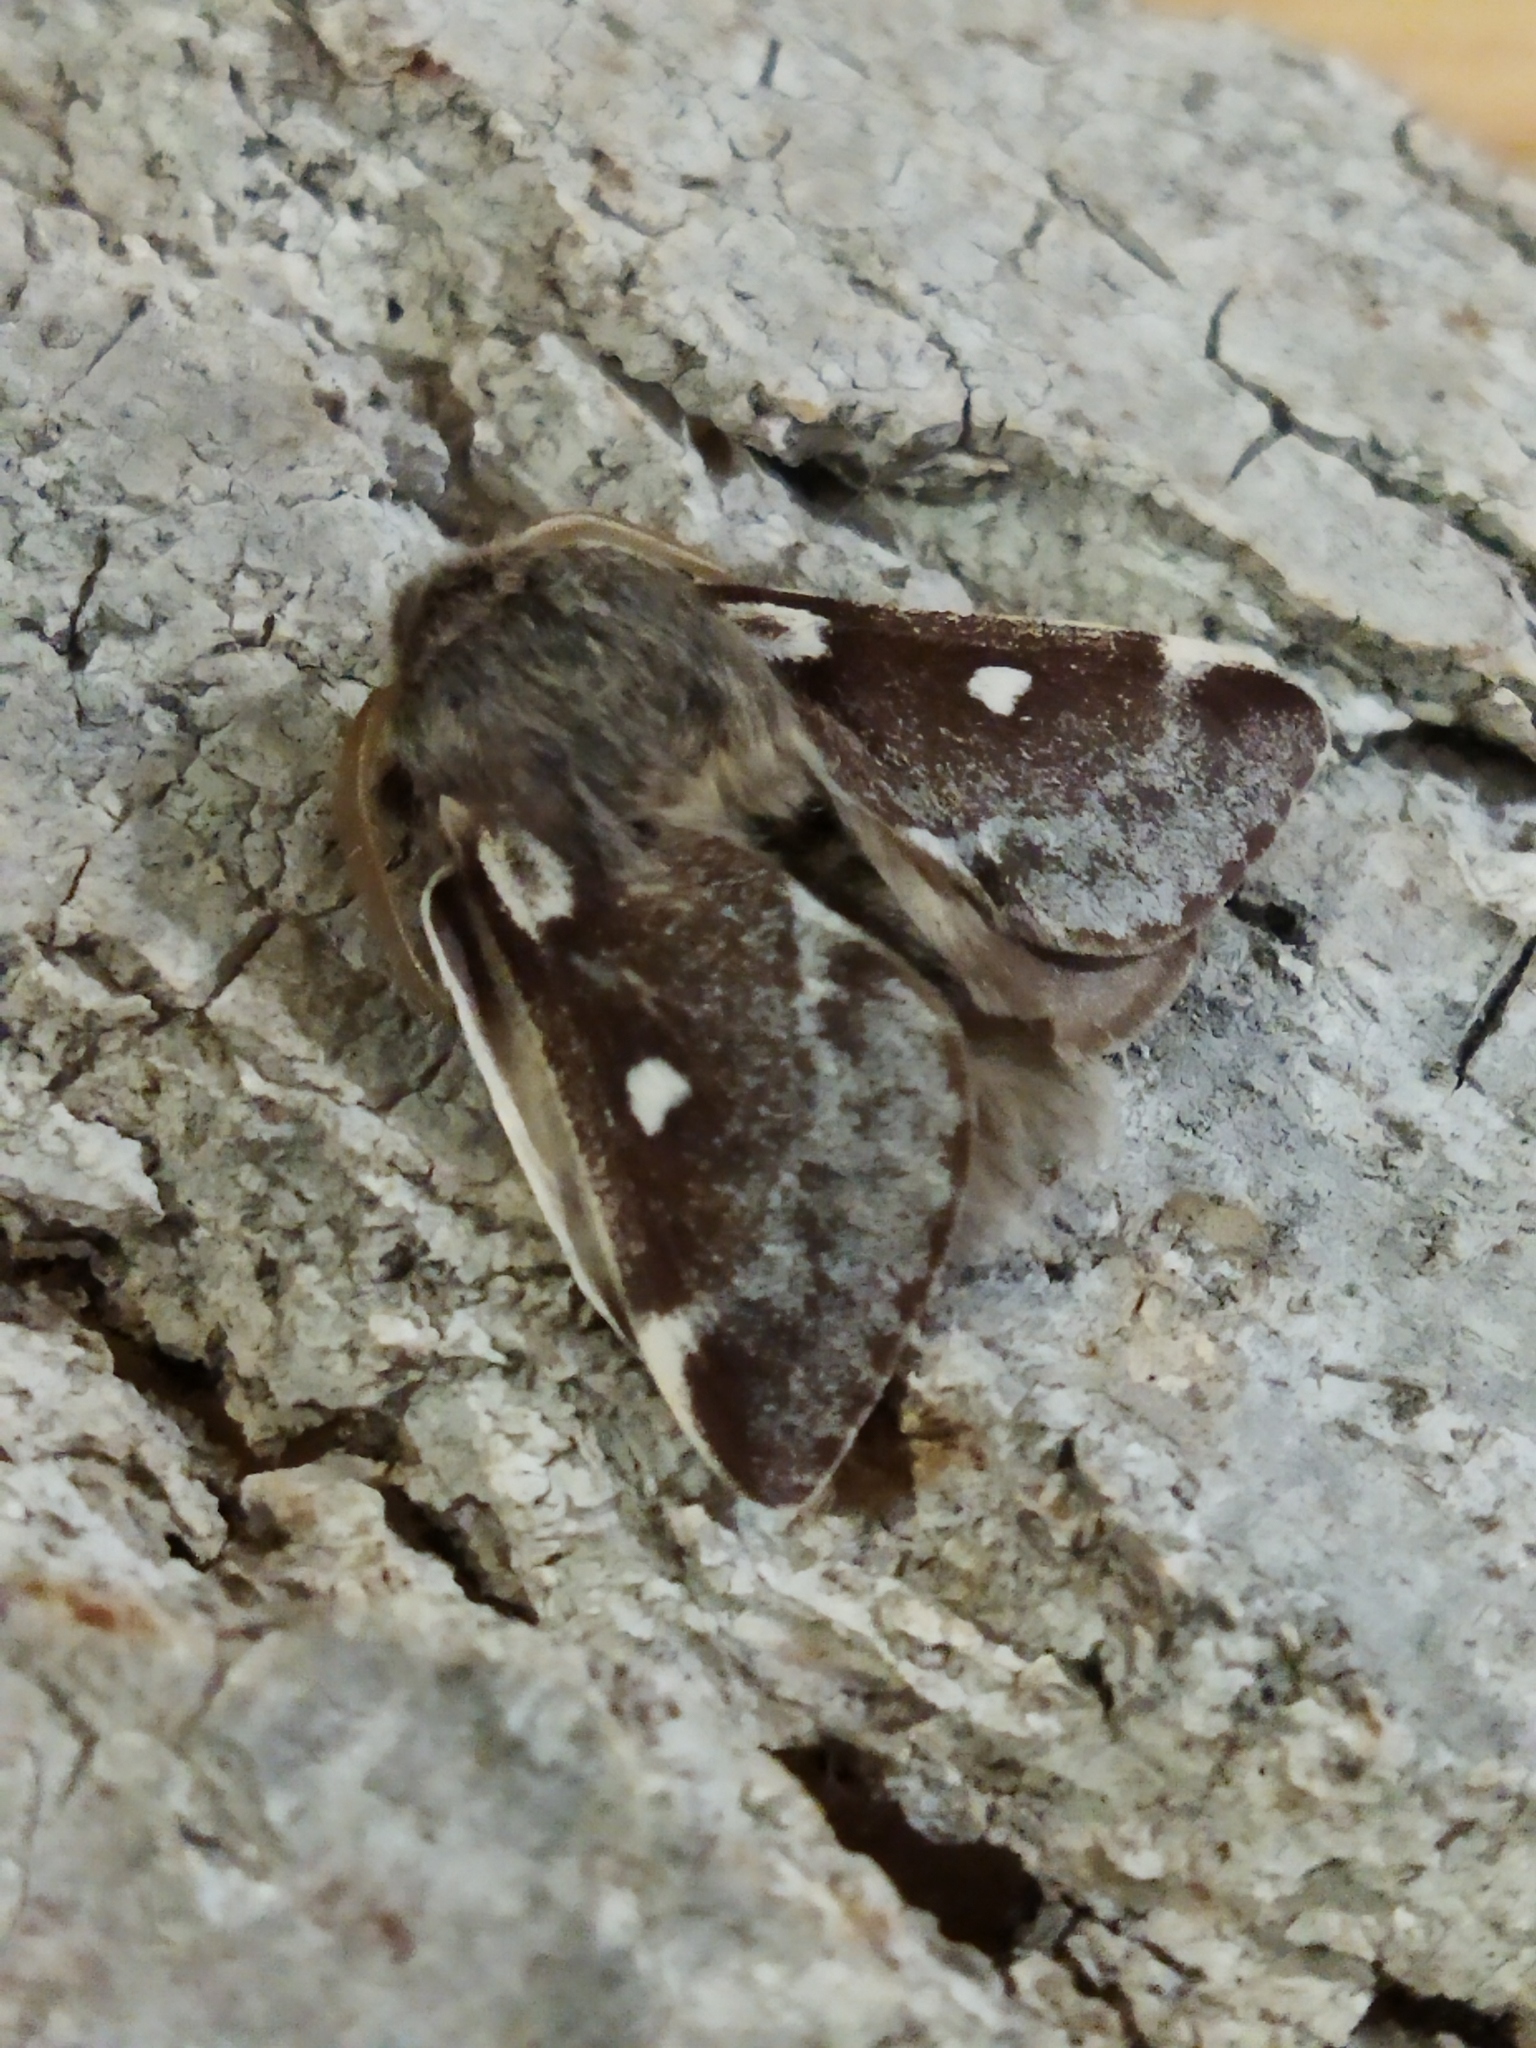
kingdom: Animalia
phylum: Arthropoda
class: Insecta
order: Lepidoptera
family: Lasiocampidae
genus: Eriogaster
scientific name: Eriogaster lanestris
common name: Small eggar
